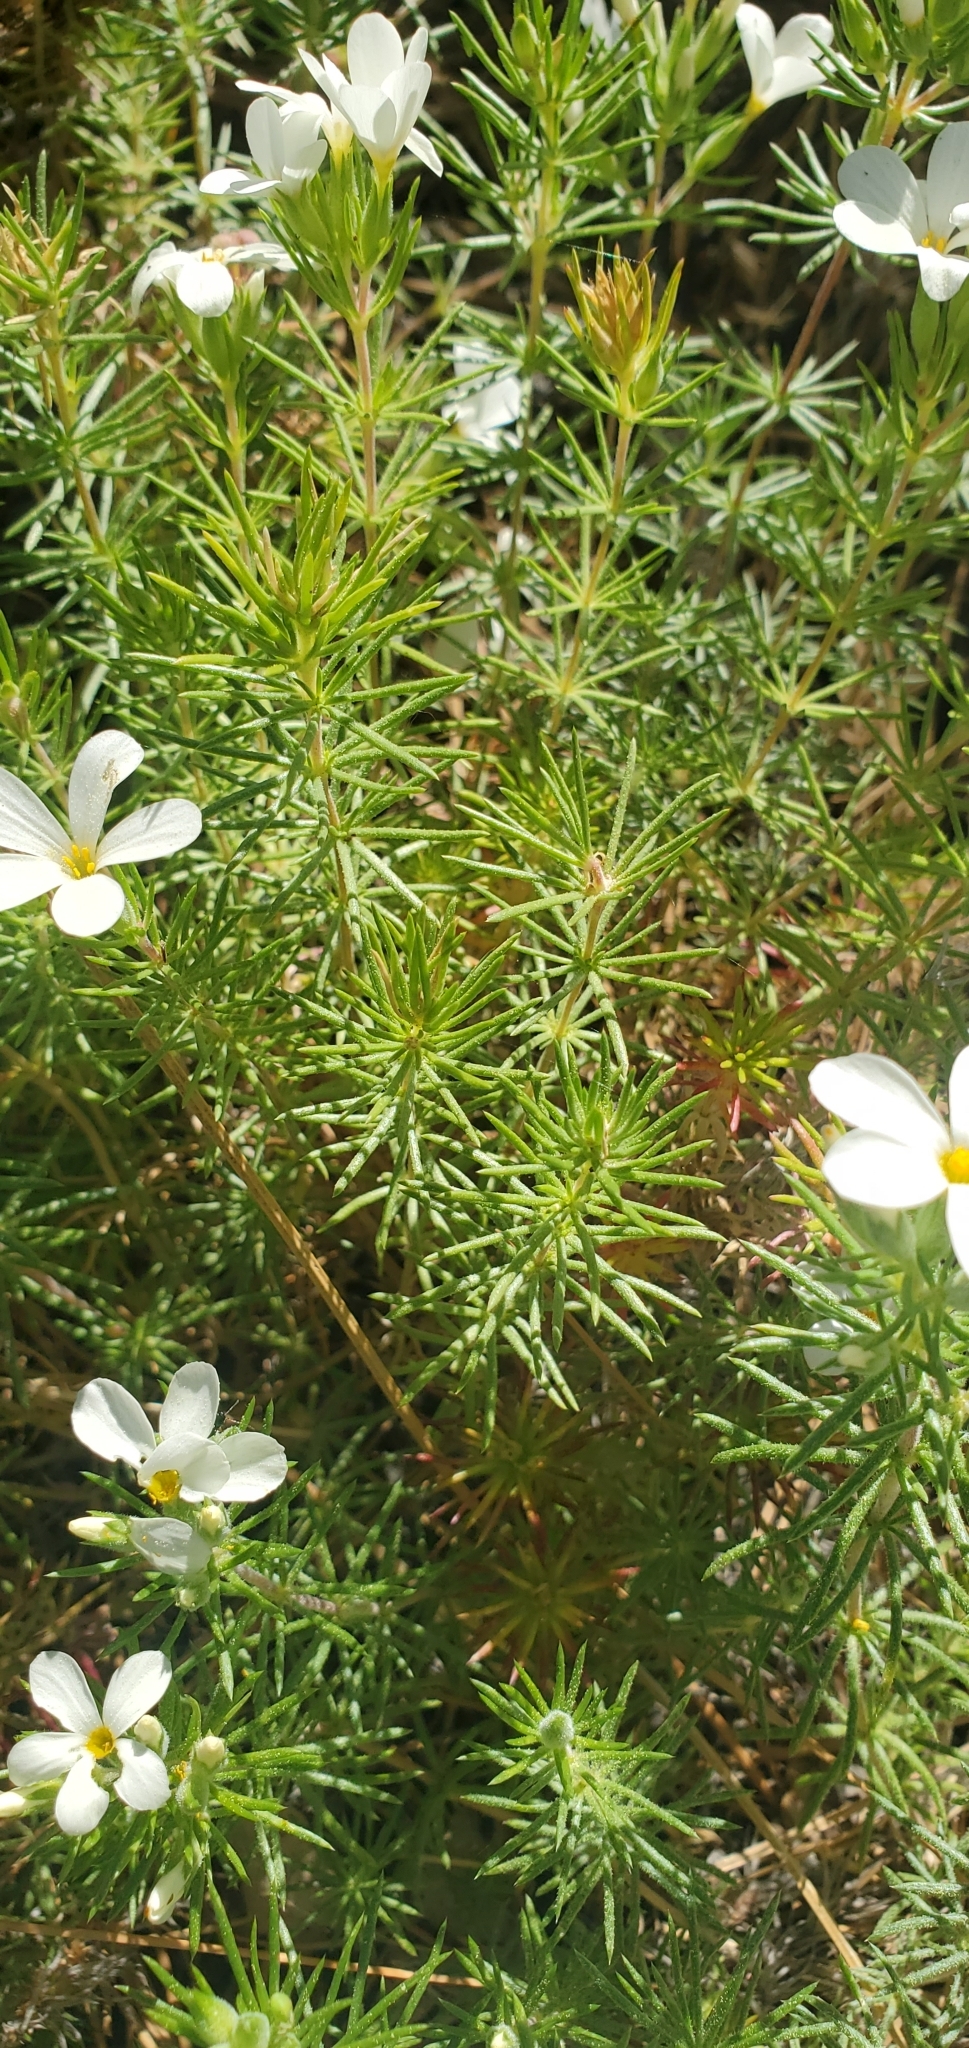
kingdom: Plantae
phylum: Tracheophyta
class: Magnoliopsida
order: Ericales
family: Polemoniaceae
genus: Leptosiphon
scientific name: Leptosiphon floribundum
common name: Many-flower linanthus
